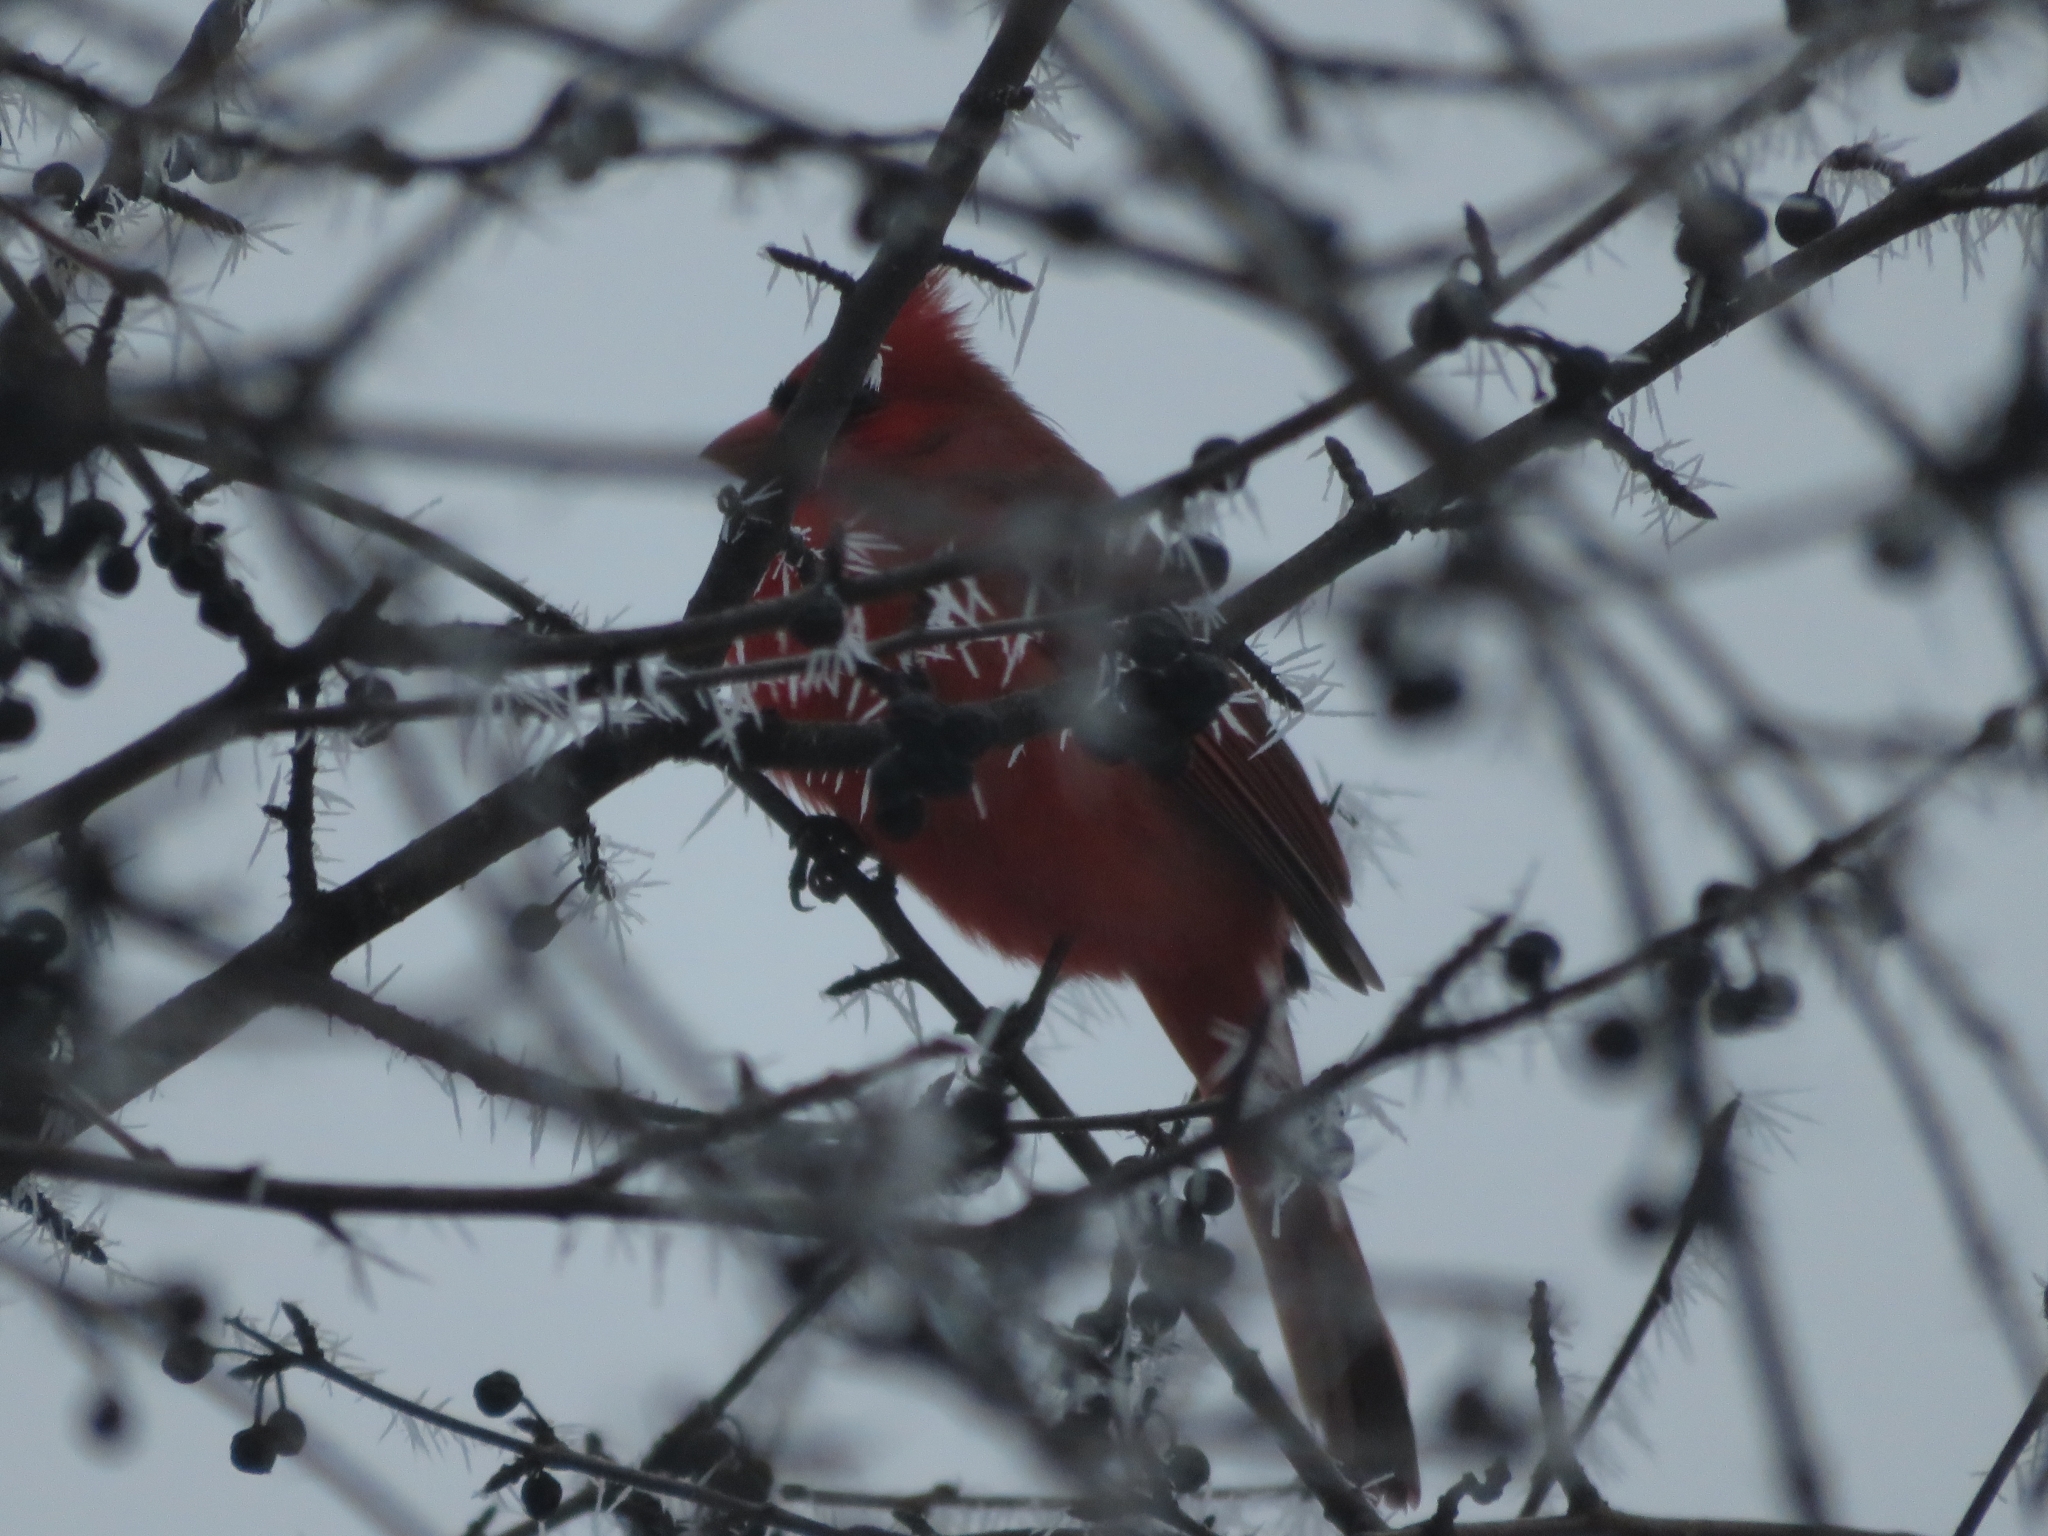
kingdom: Animalia
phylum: Chordata
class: Aves
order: Passeriformes
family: Cardinalidae
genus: Cardinalis
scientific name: Cardinalis cardinalis
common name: Northern cardinal
